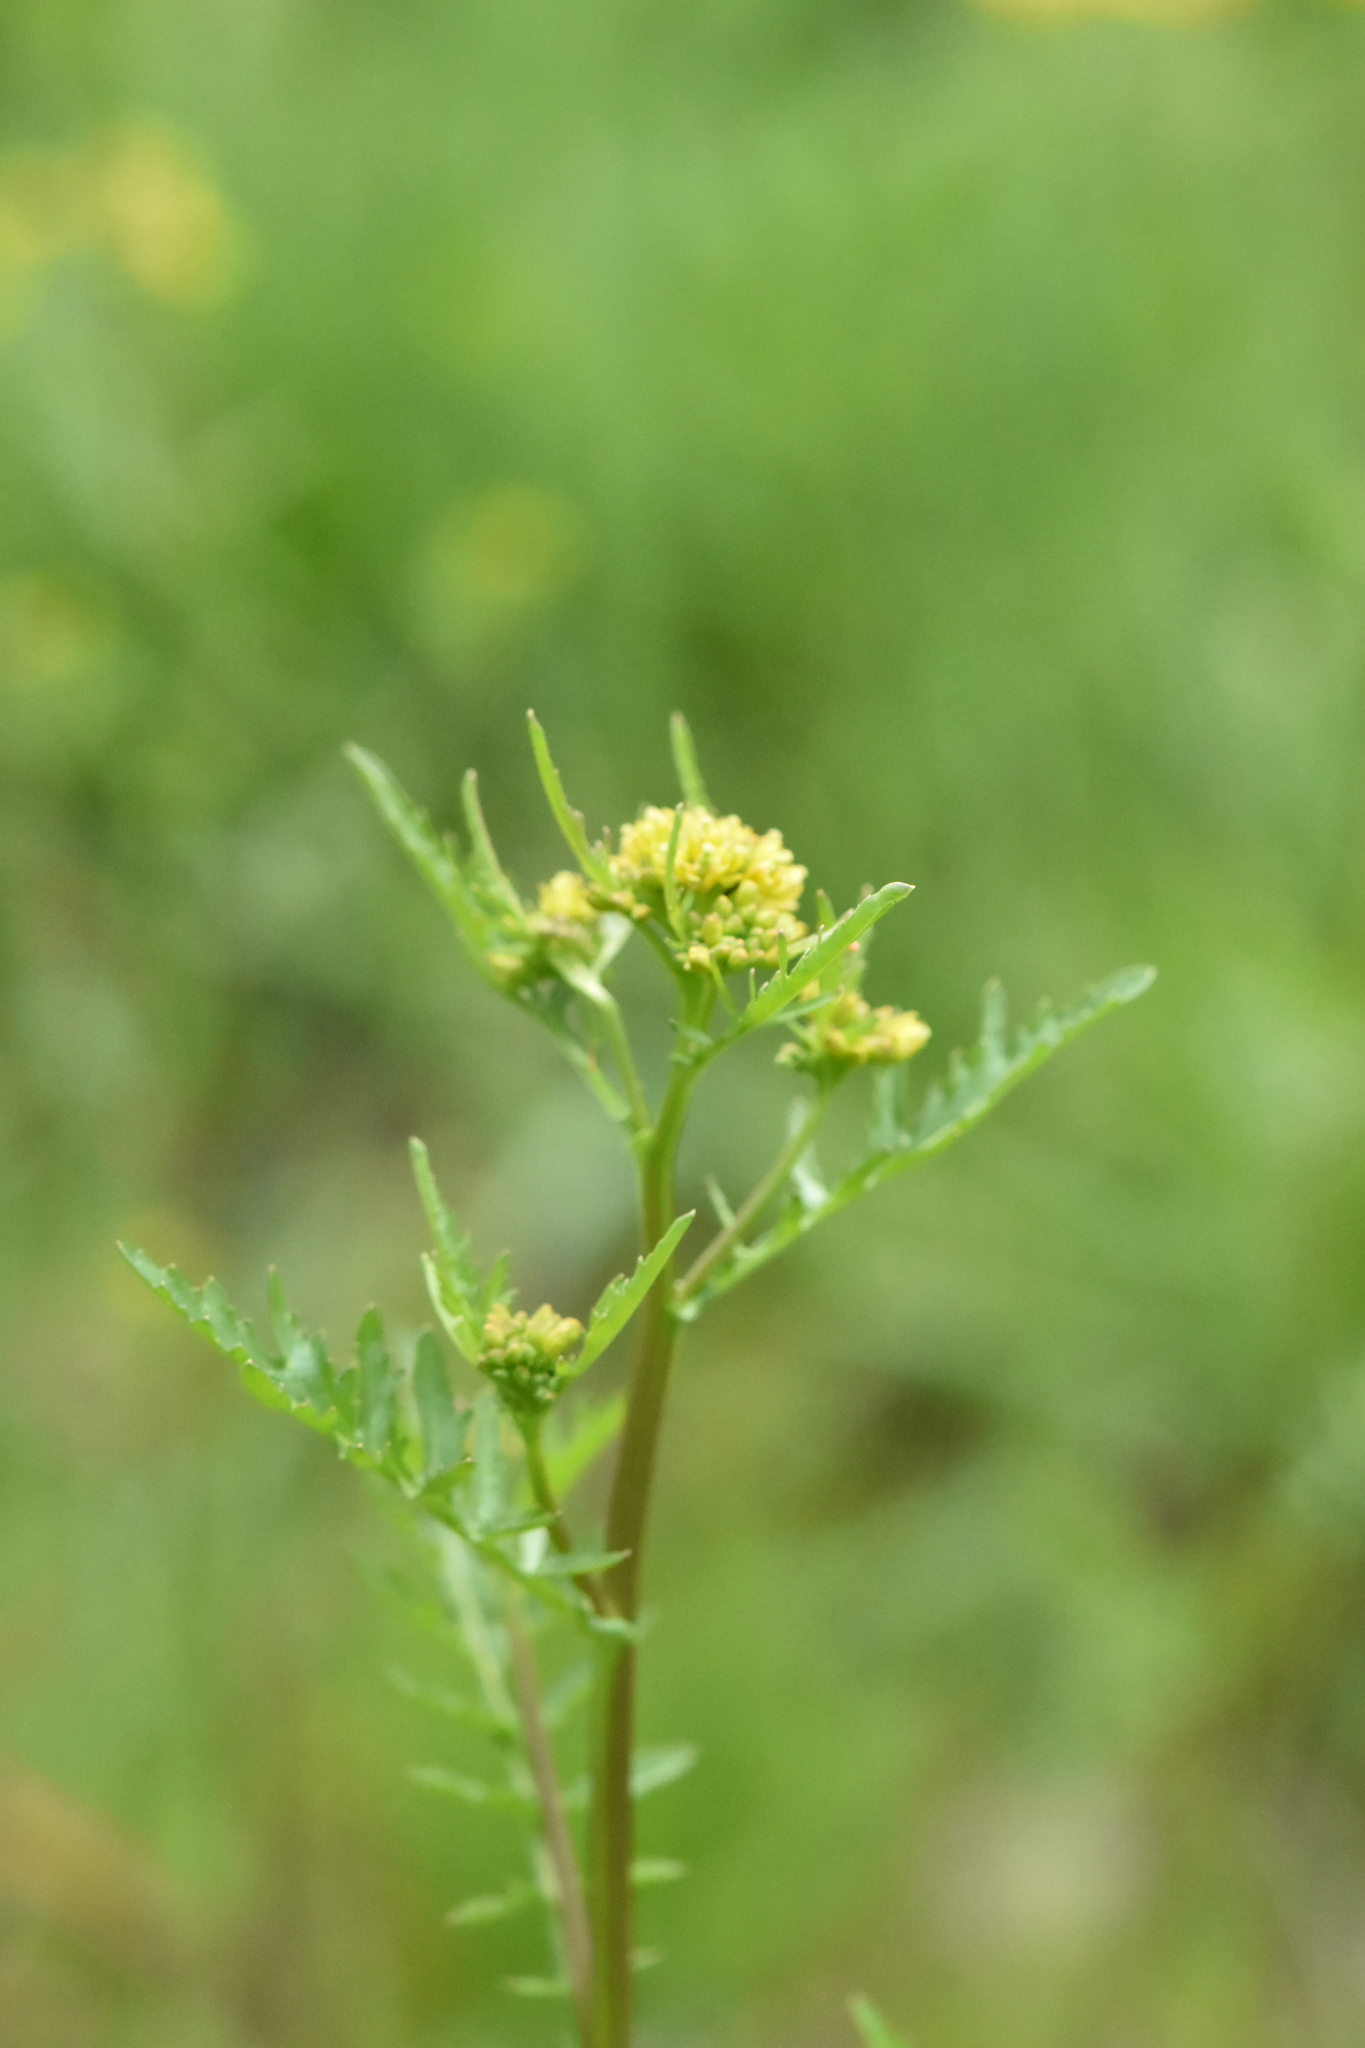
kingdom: Plantae
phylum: Tracheophyta
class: Magnoliopsida
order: Brassicales
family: Brassicaceae
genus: Rorippa
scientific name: Rorippa palustris
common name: Marsh yellow-cress
